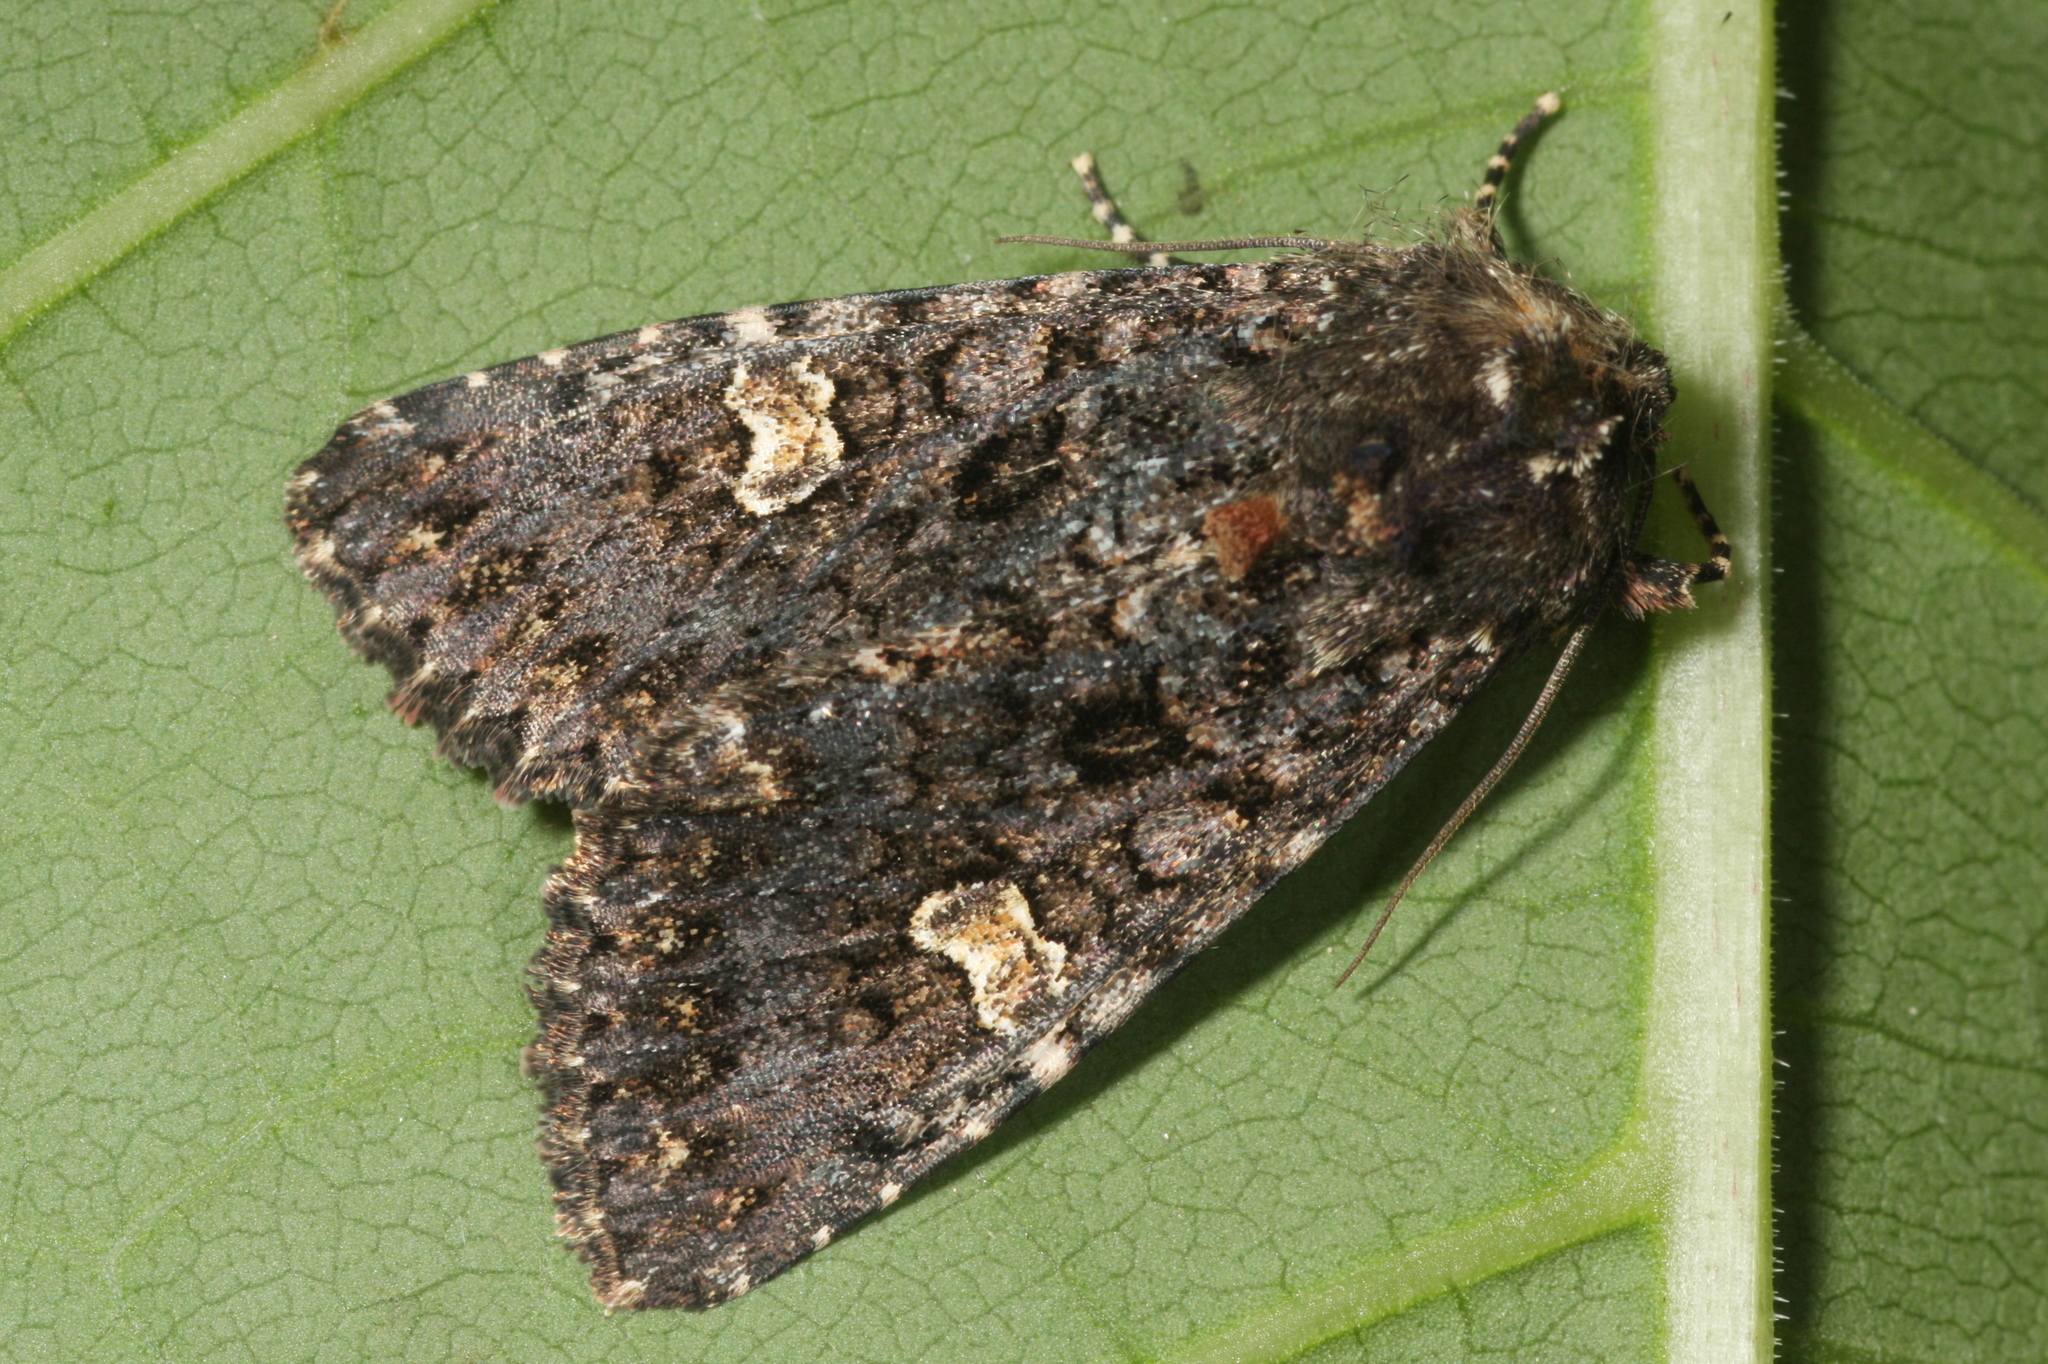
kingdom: Animalia
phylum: Arthropoda
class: Insecta
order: Lepidoptera
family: Noctuidae
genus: Melanchra
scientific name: Melanchra persicariae
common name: Dot moth
